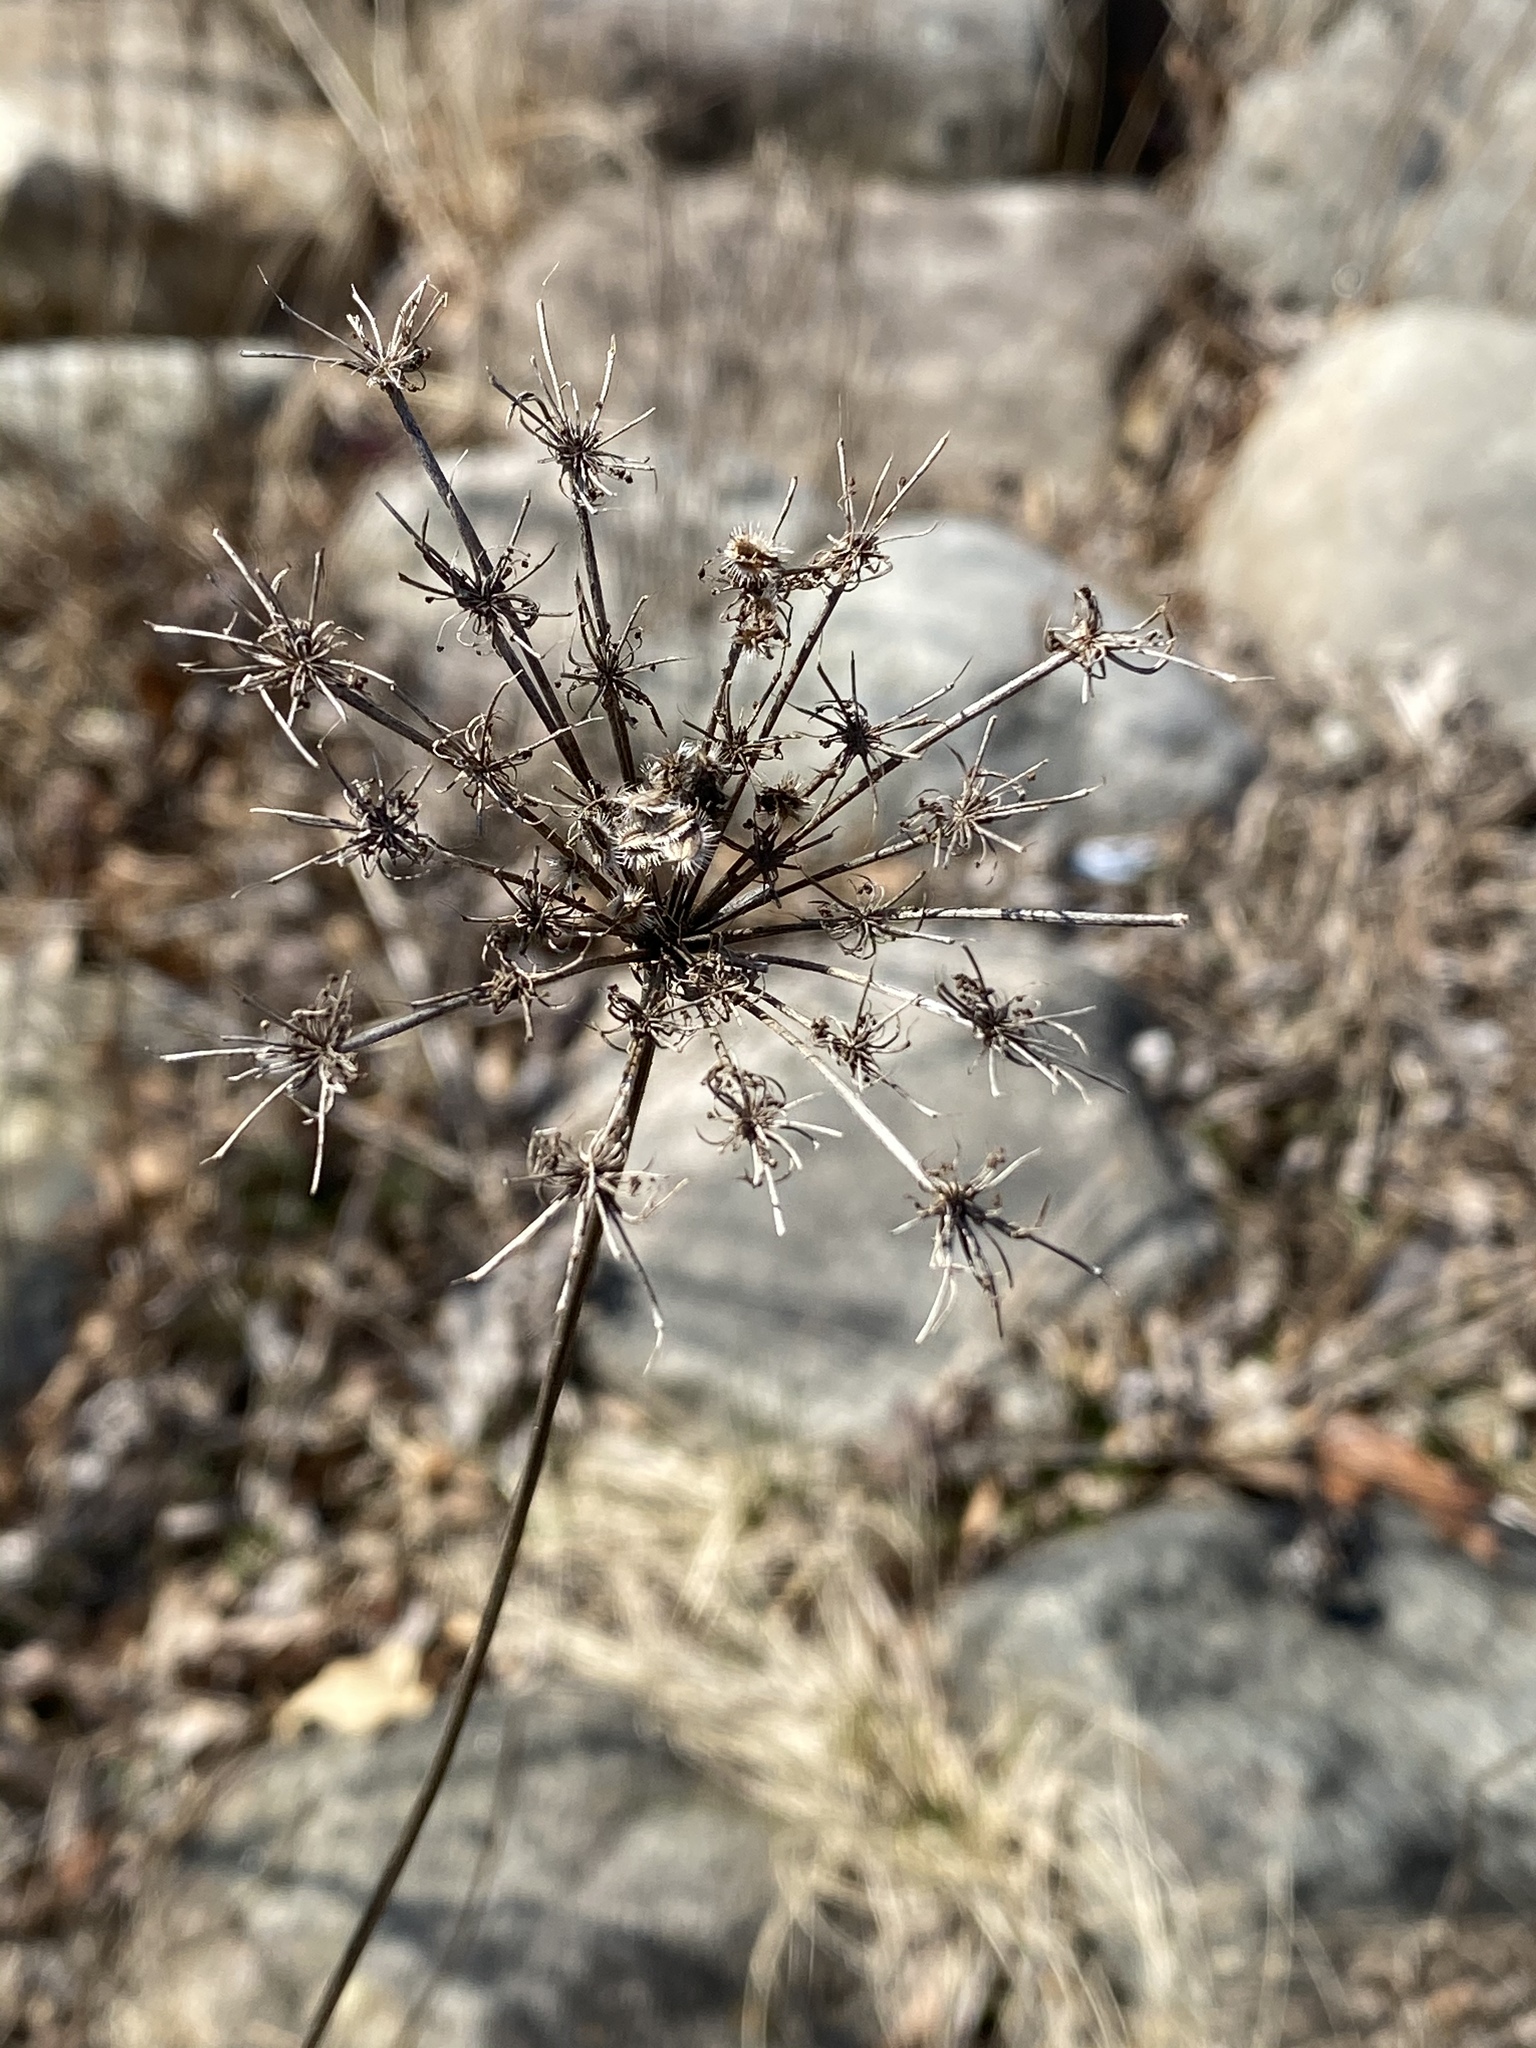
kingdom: Plantae
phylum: Tracheophyta
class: Magnoliopsida
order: Apiales
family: Apiaceae
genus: Daucus
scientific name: Daucus carota
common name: Wild carrot
